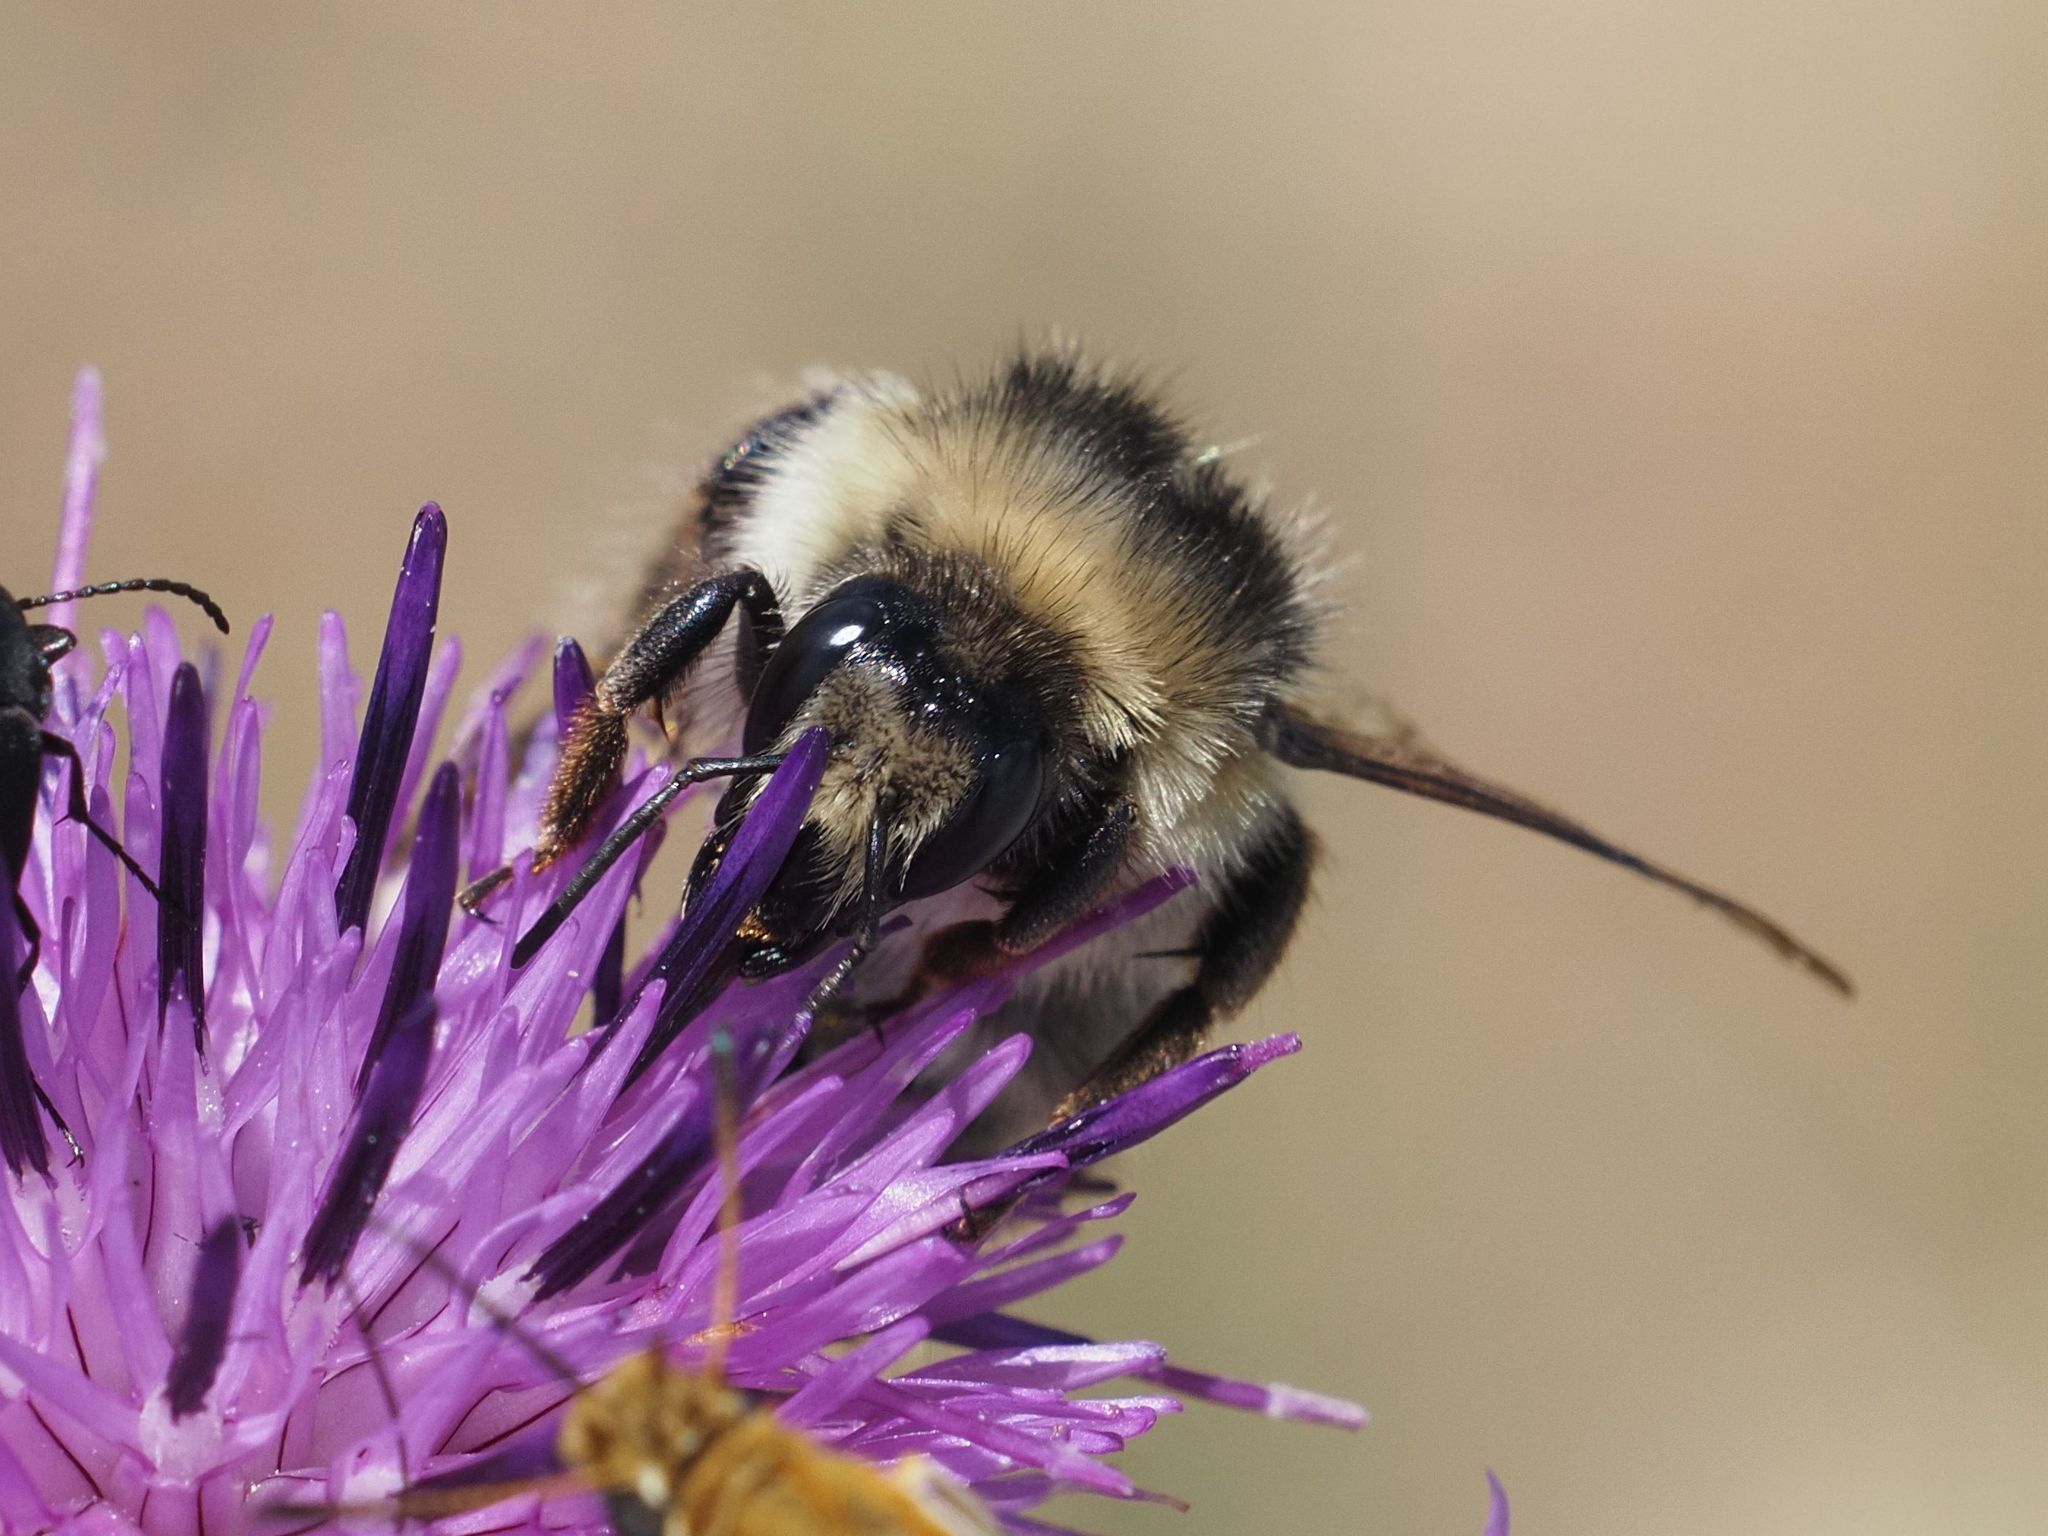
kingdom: Animalia
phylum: Arthropoda
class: Insecta
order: Hymenoptera
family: Apidae
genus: Bombus
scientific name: Bombus sylvarum
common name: Shrill carder bee
